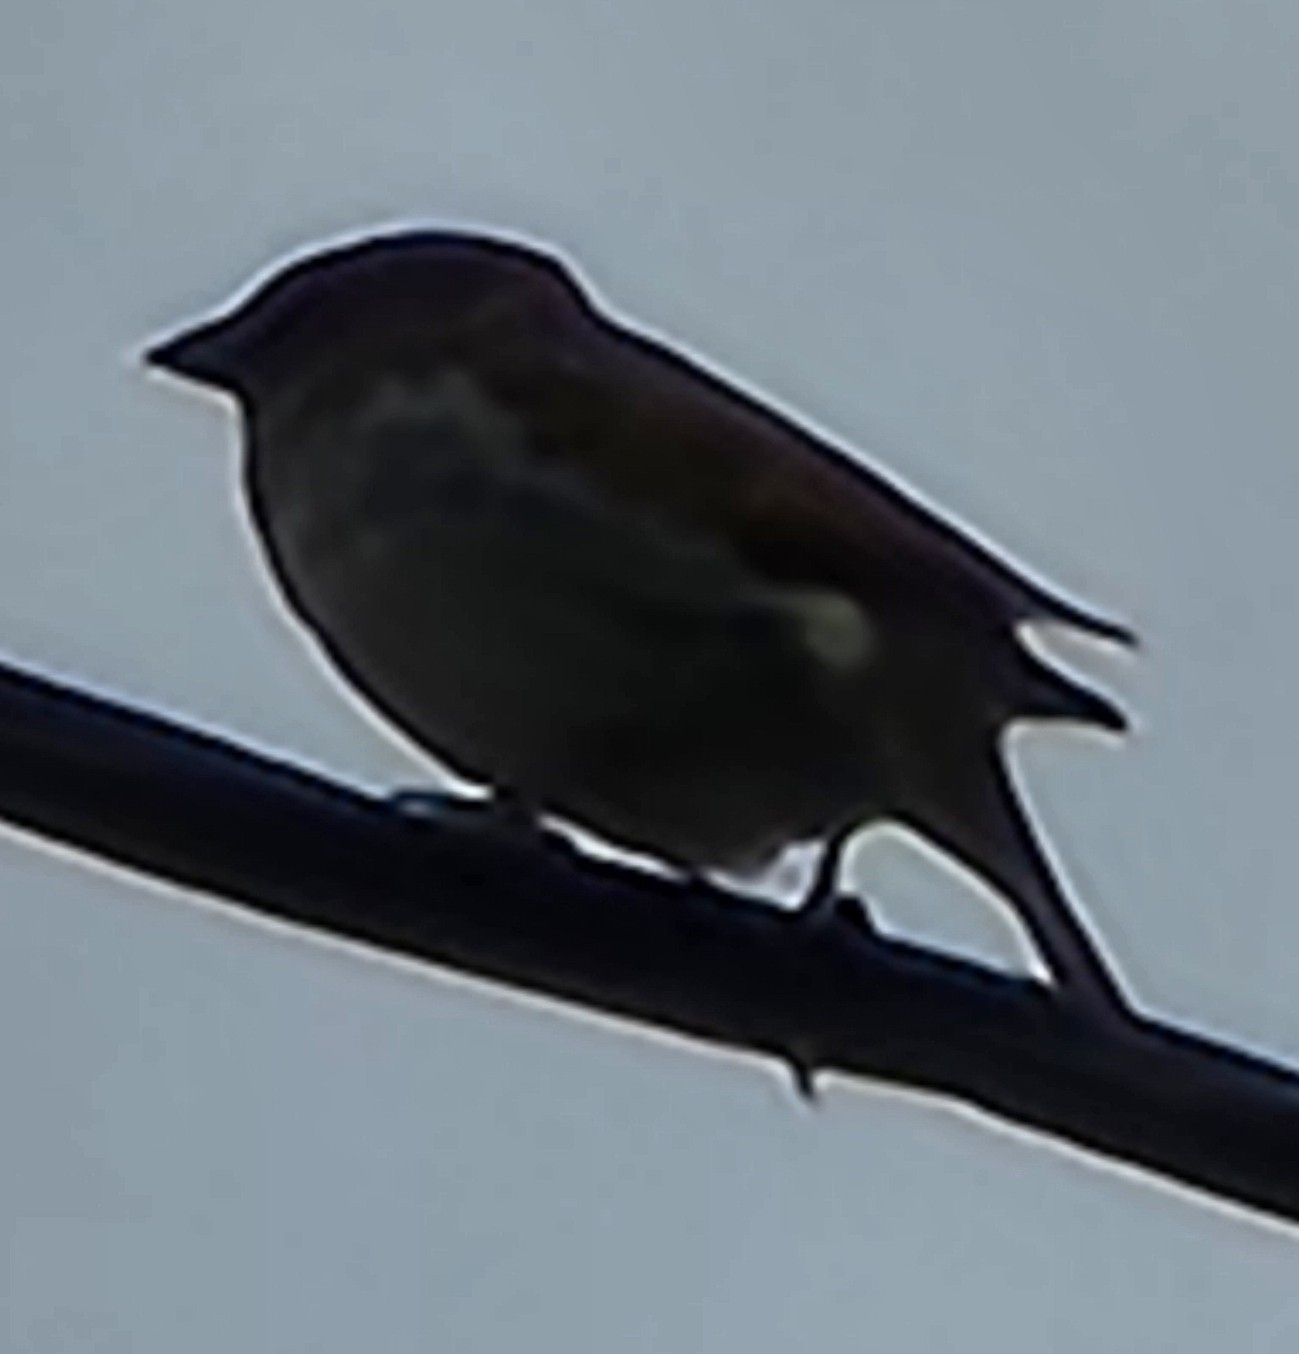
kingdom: Animalia
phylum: Chordata
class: Aves
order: Passeriformes
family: Passeridae
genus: Passer
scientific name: Passer domesticus
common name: House sparrow
